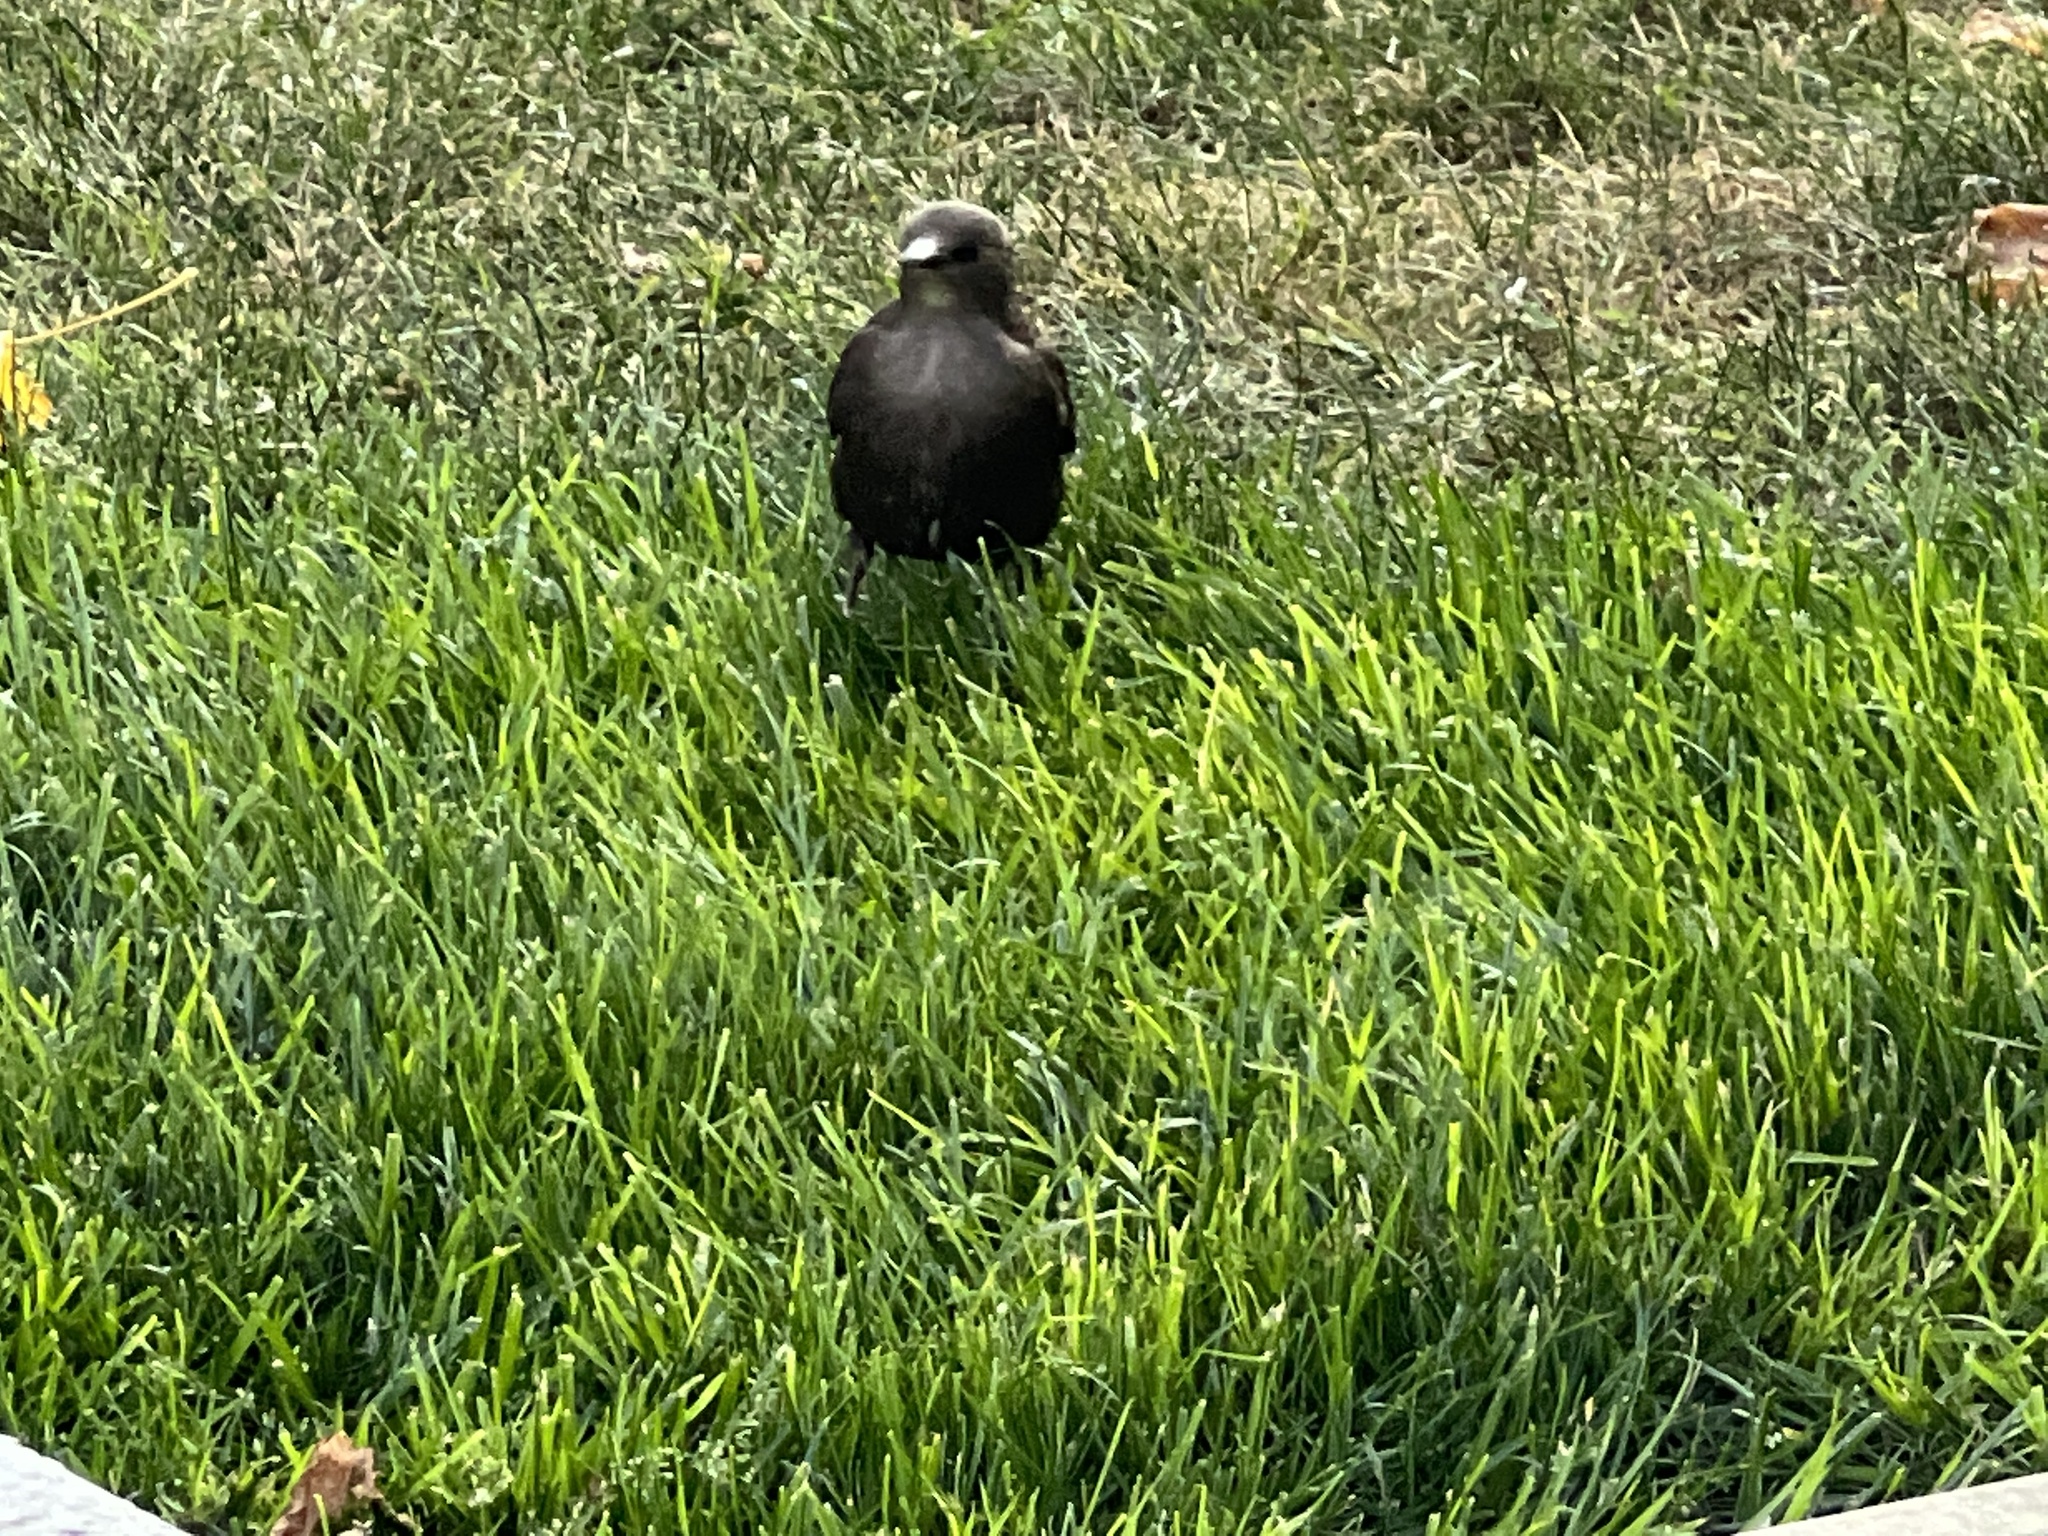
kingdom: Animalia
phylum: Chordata
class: Aves
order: Passeriformes
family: Sturnidae
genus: Sturnus
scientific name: Sturnus vulgaris
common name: Common starling
